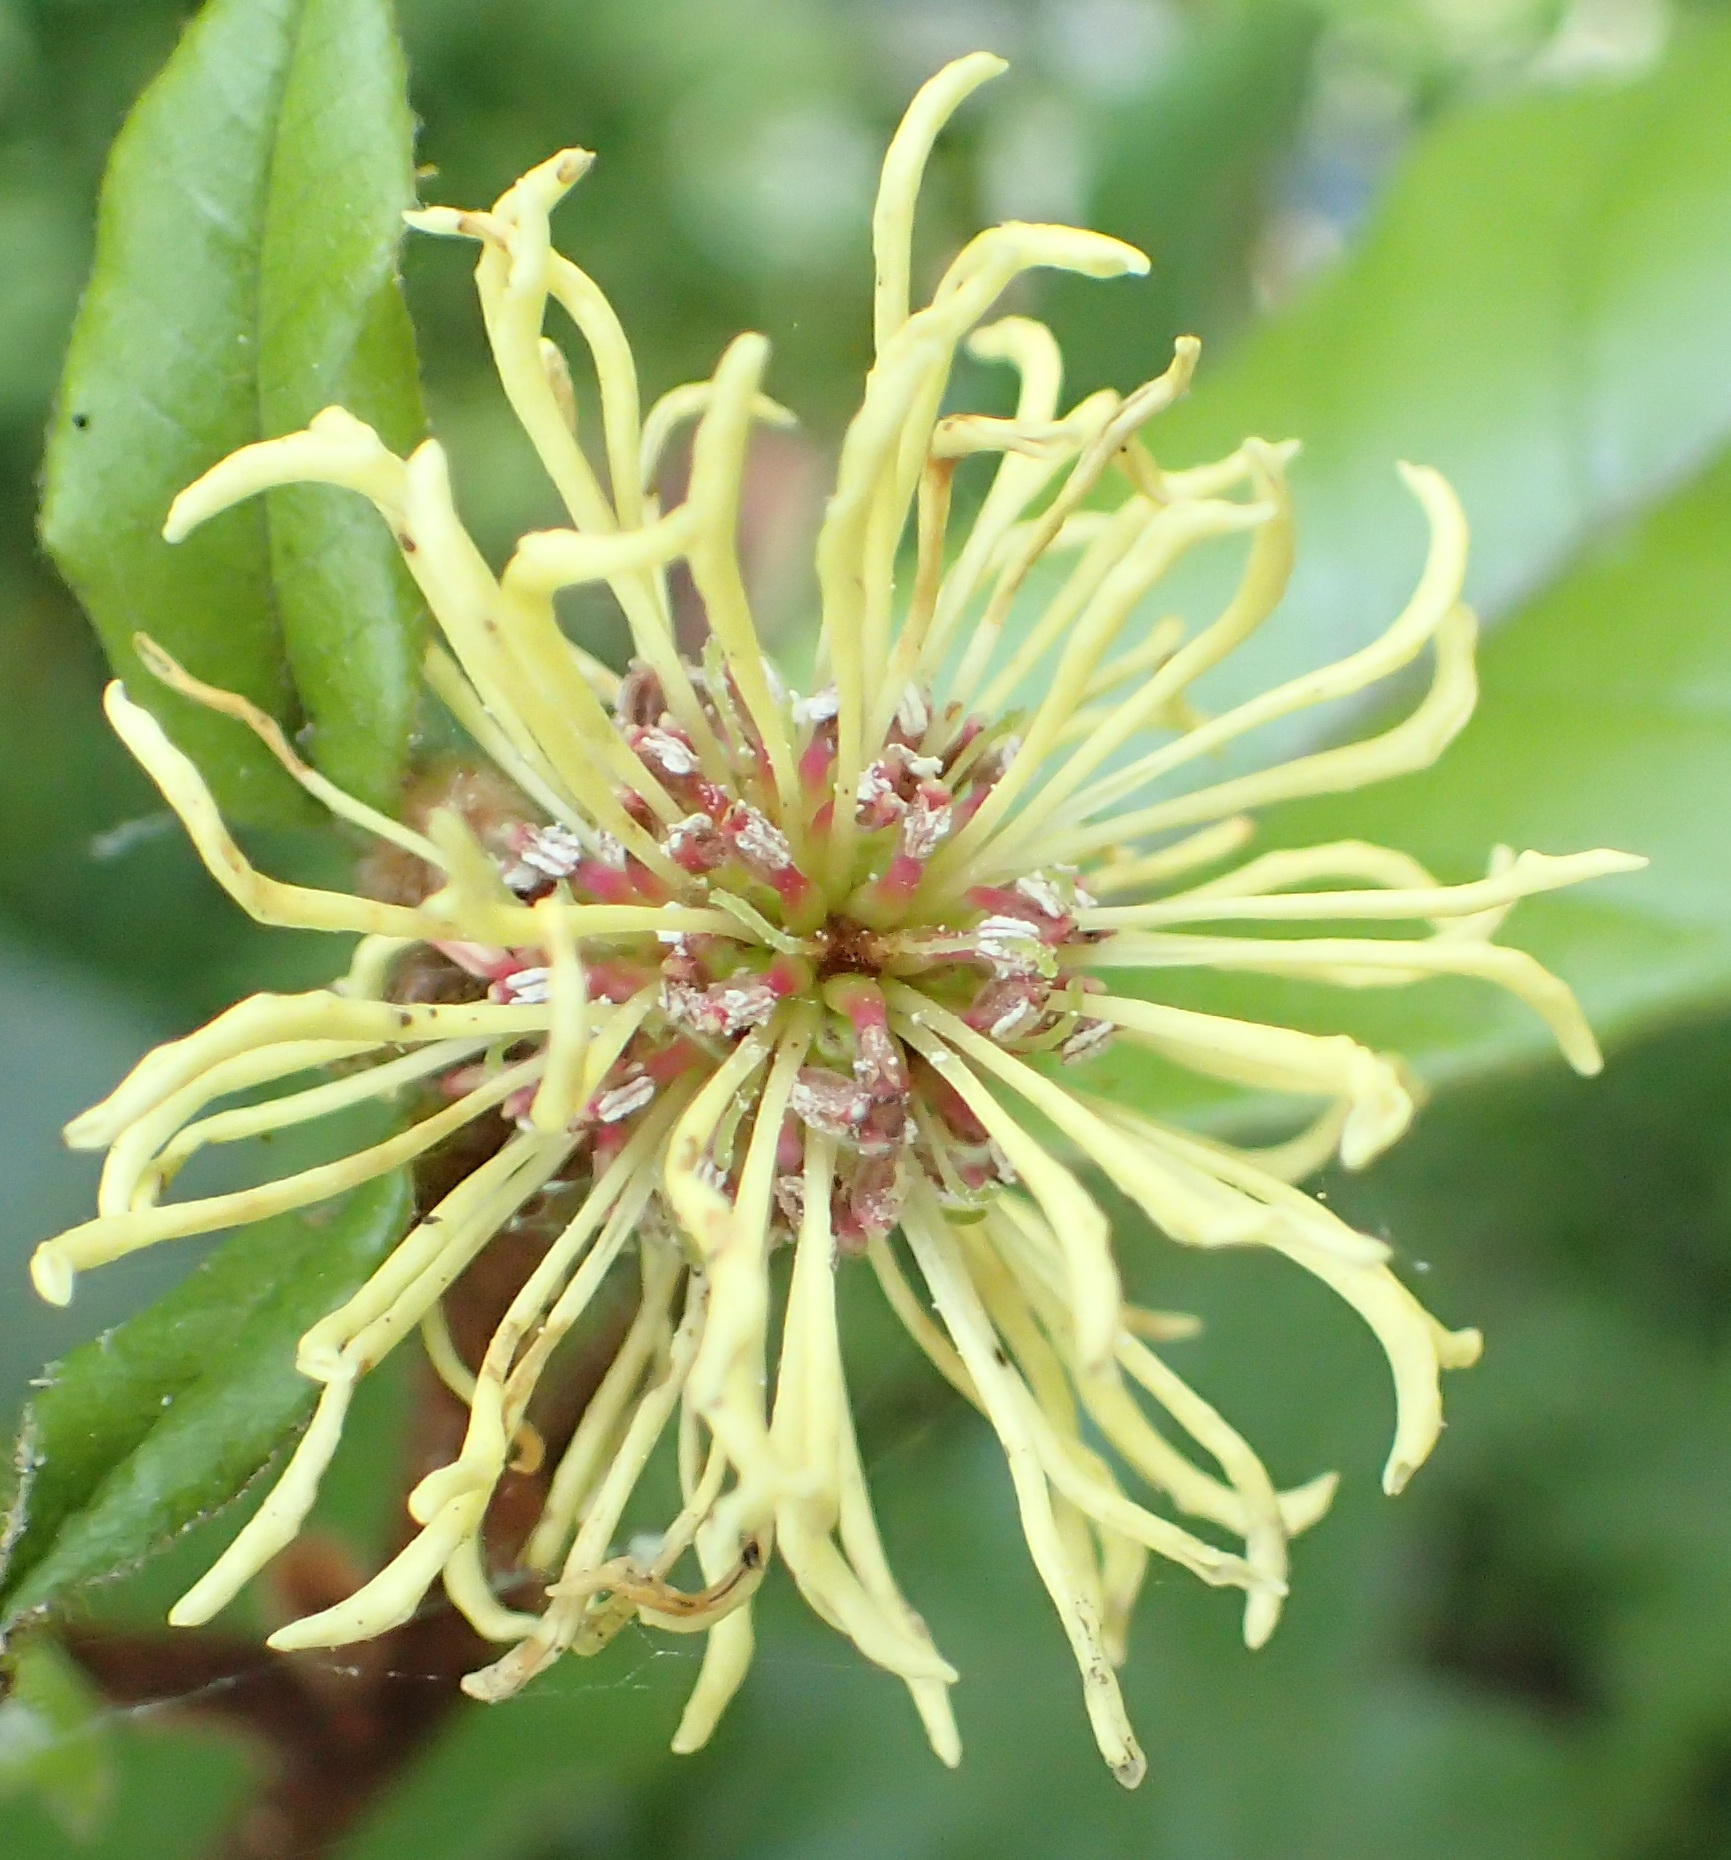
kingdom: Plantae
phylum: Tracheophyta
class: Magnoliopsida
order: Saxifragales
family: Hamamelidaceae
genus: Trichocladus
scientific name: Trichocladus crinitus
